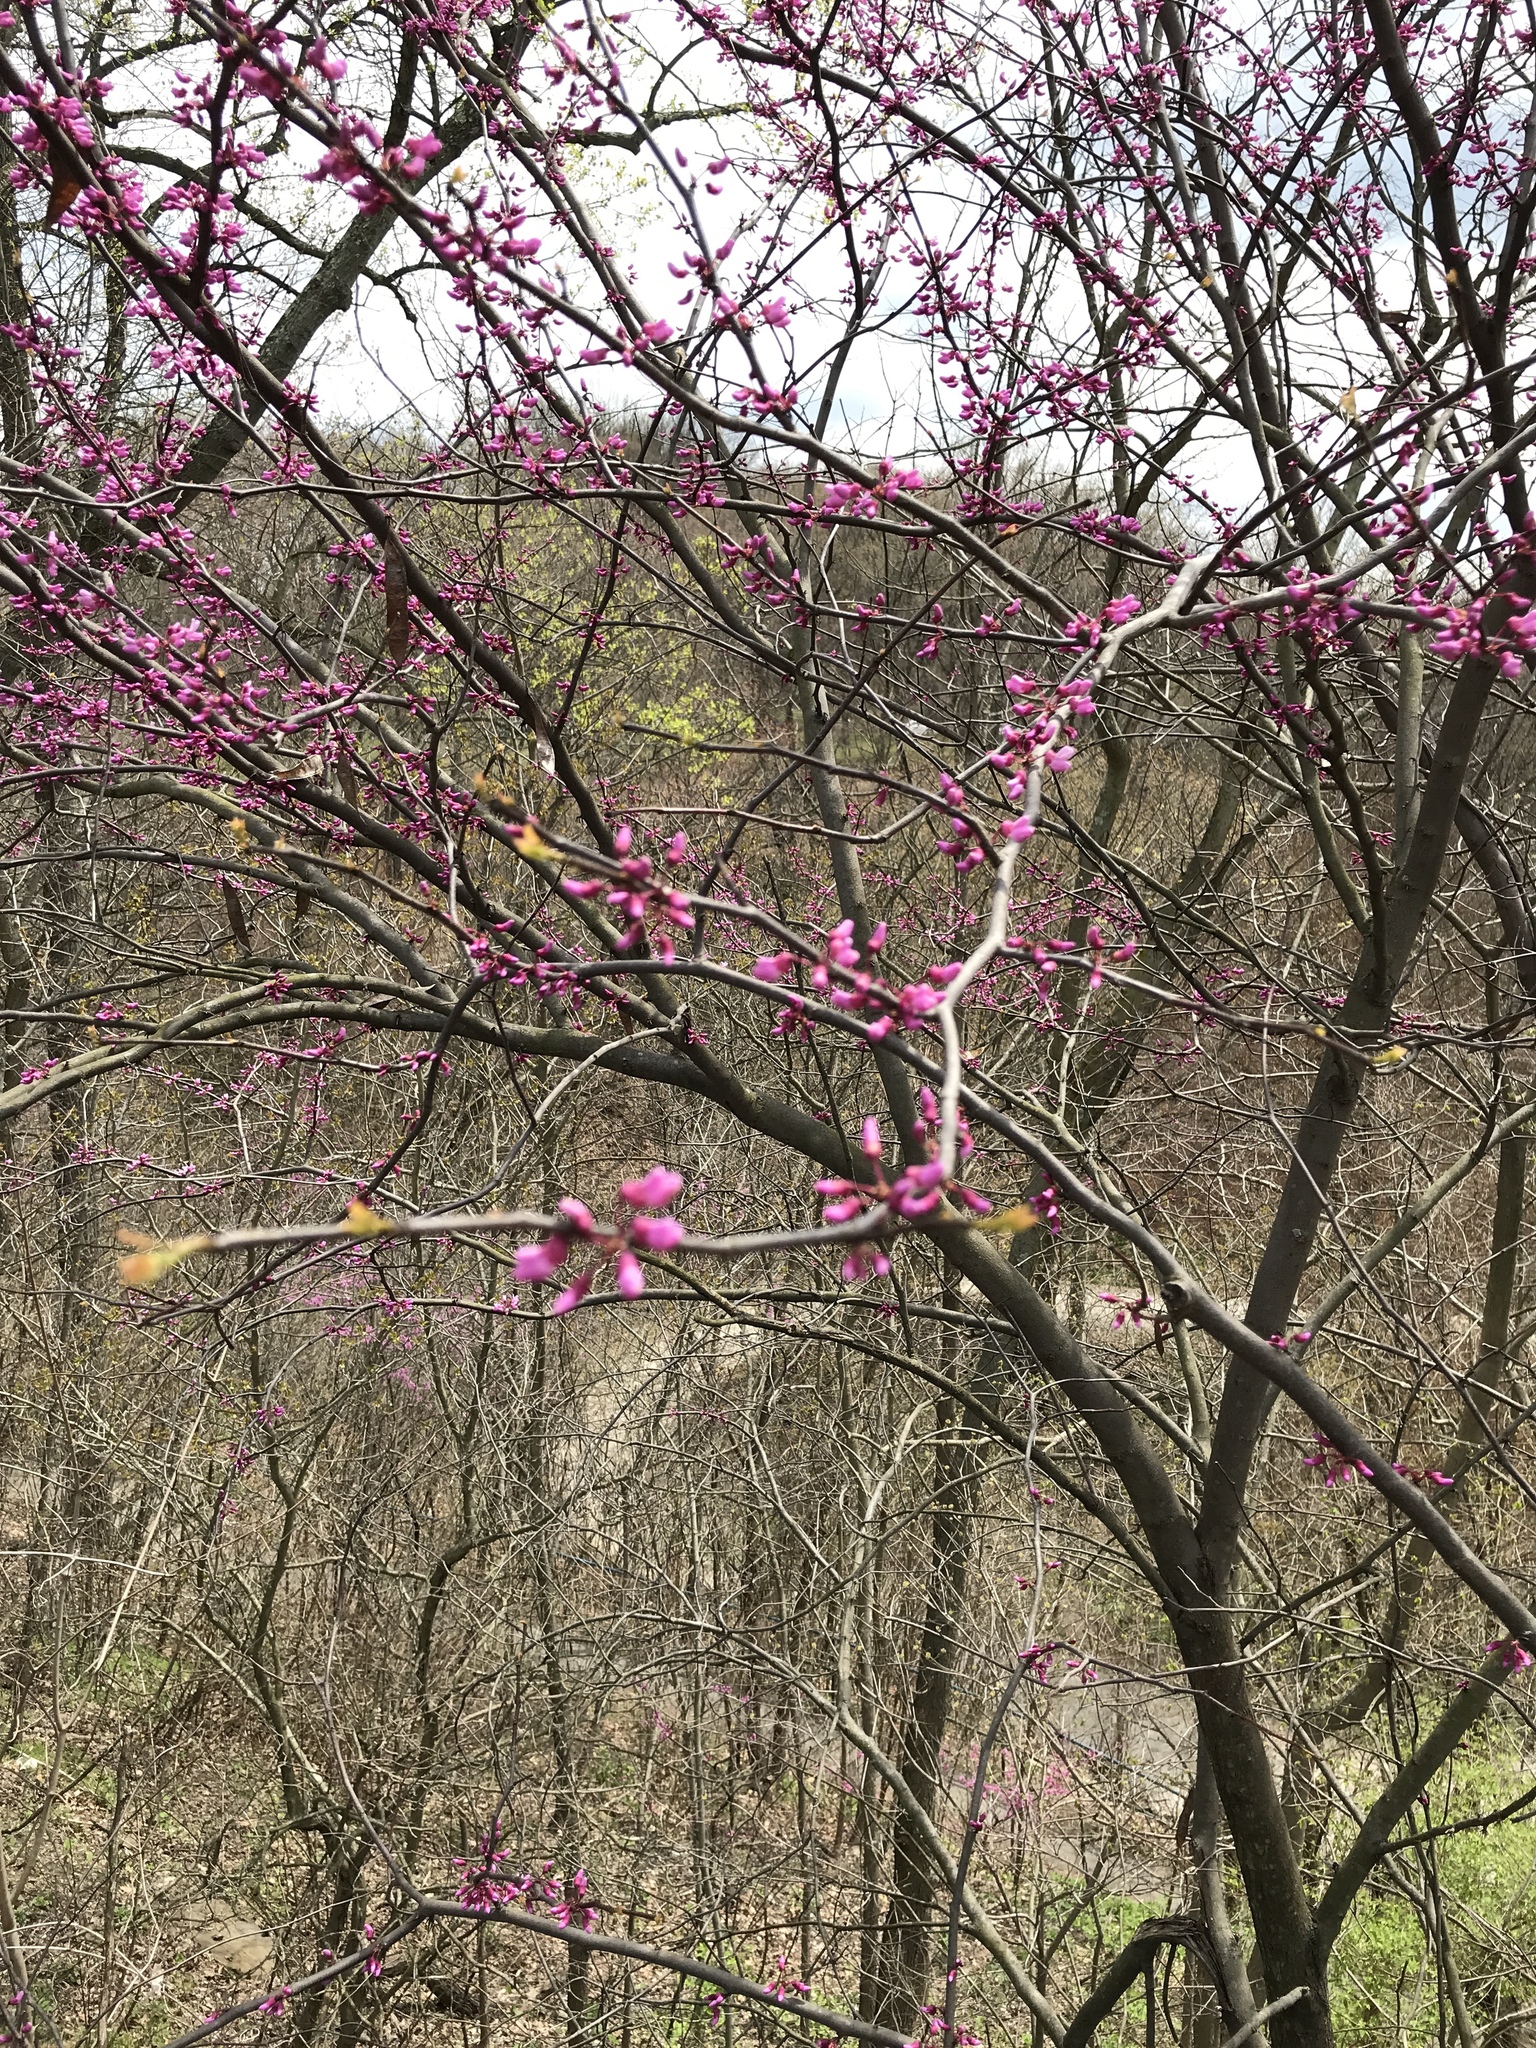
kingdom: Plantae
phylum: Tracheophyta
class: Magnoliopsida
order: Fabales
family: Fabaceae
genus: Cercis
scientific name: Cercis canadensis
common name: Eastern redbud
